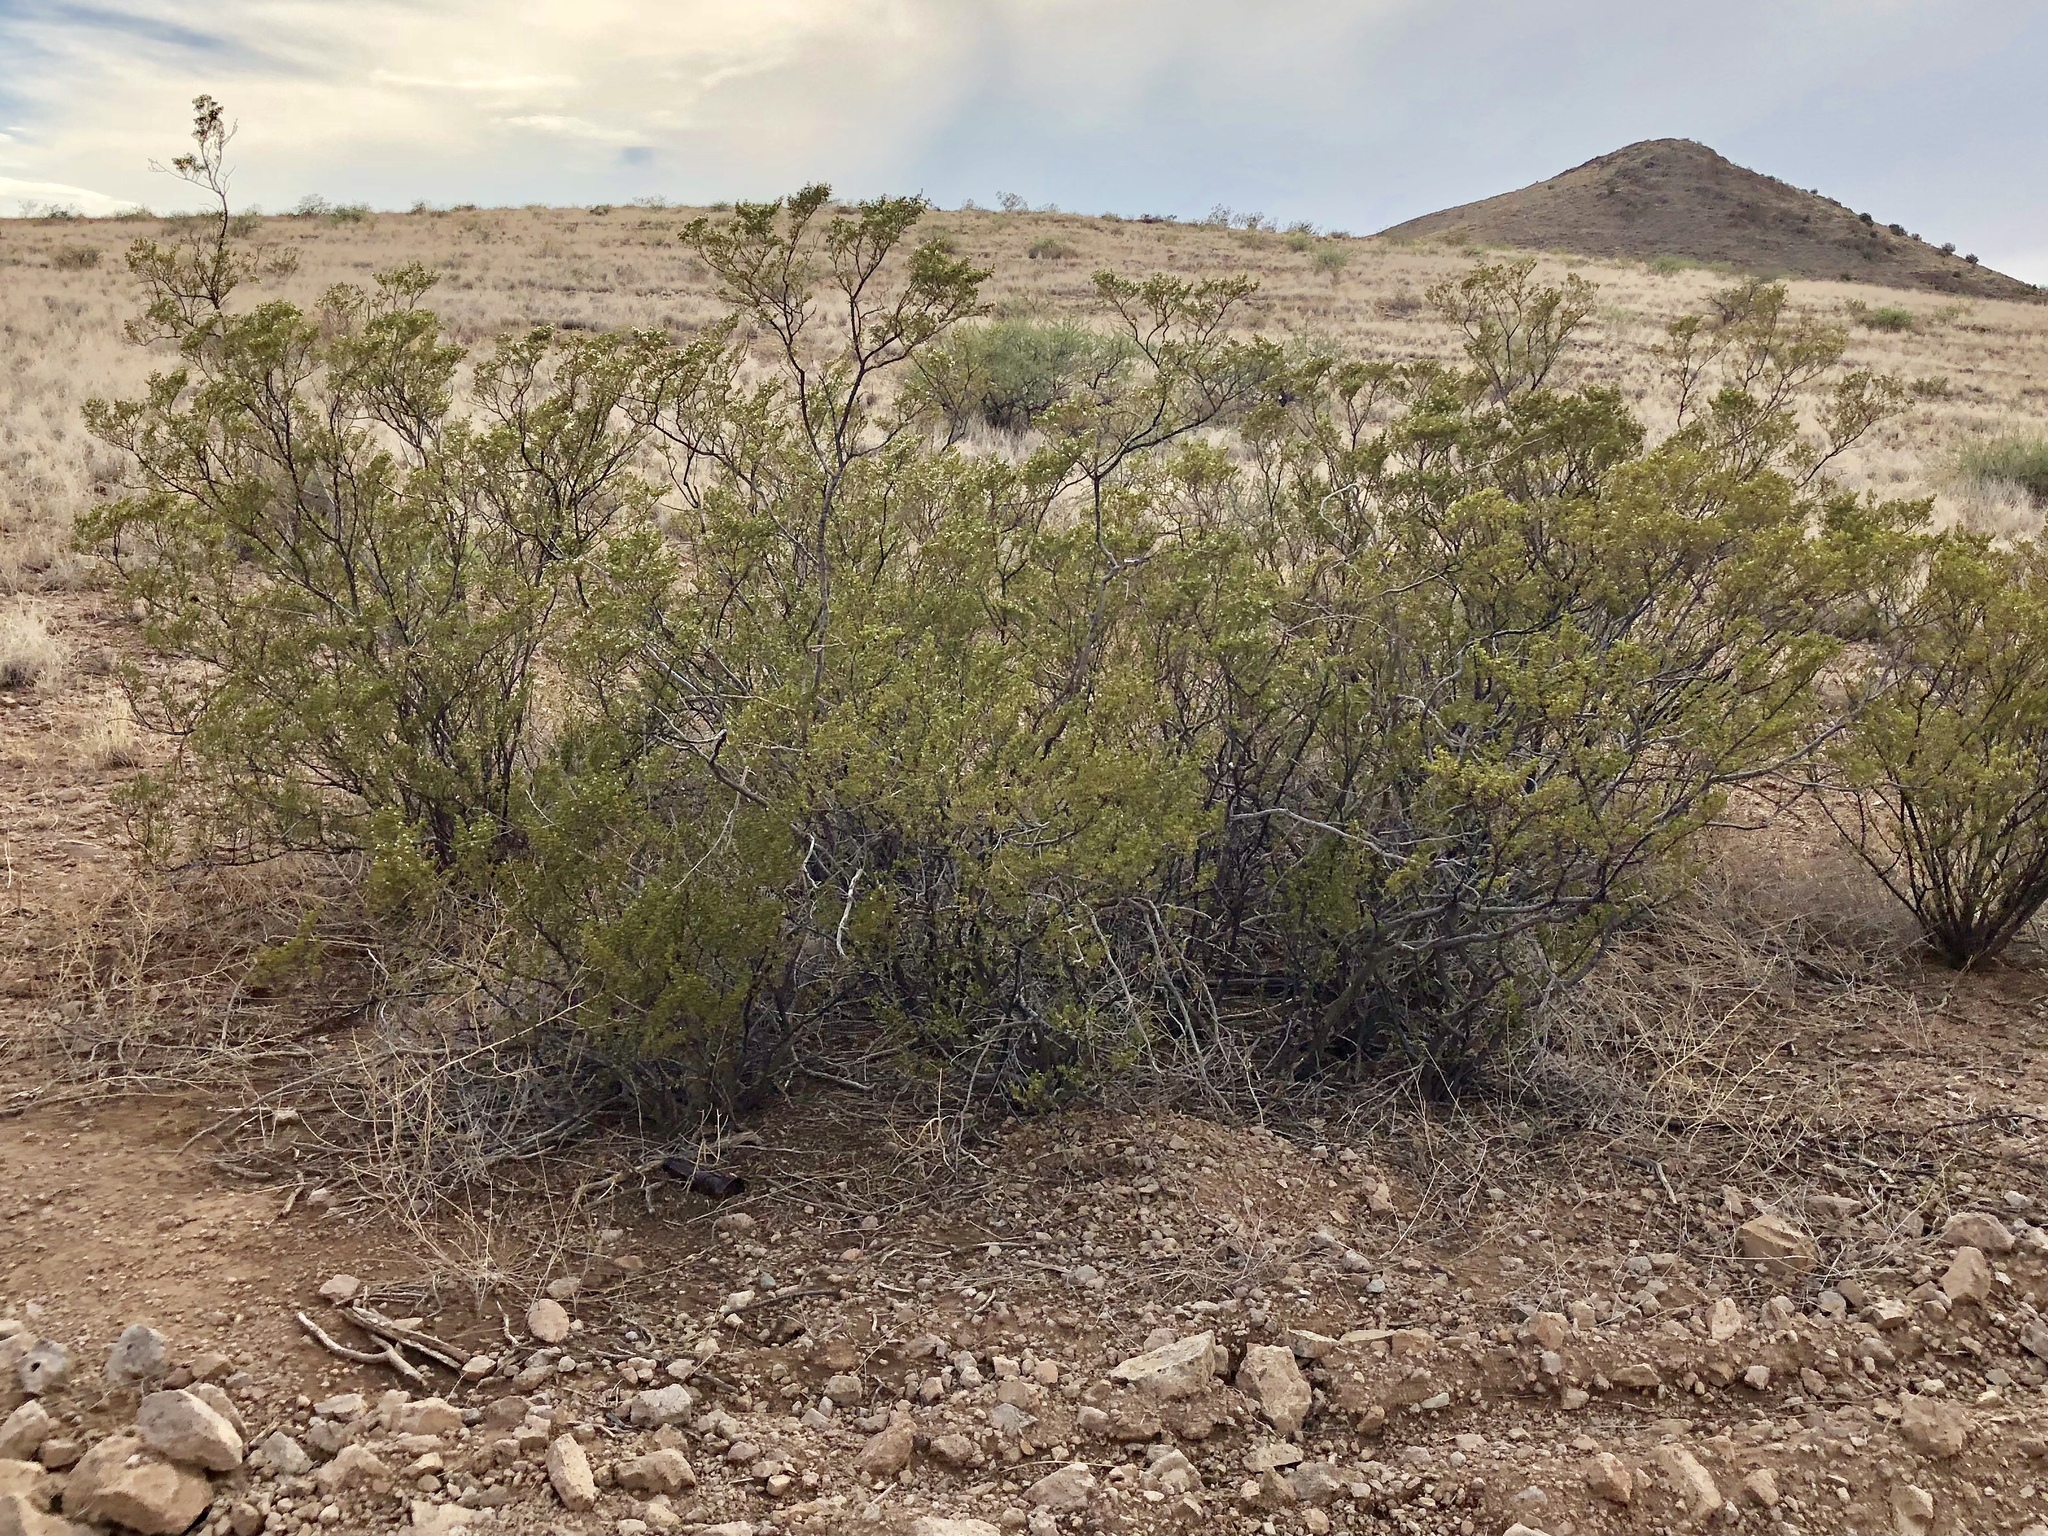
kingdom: Plantae
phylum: Tracheophyta
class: Magnoliopsida
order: Zygophyllales
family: Zygophyllaceae
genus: Larrea
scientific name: Larrea tridentata
